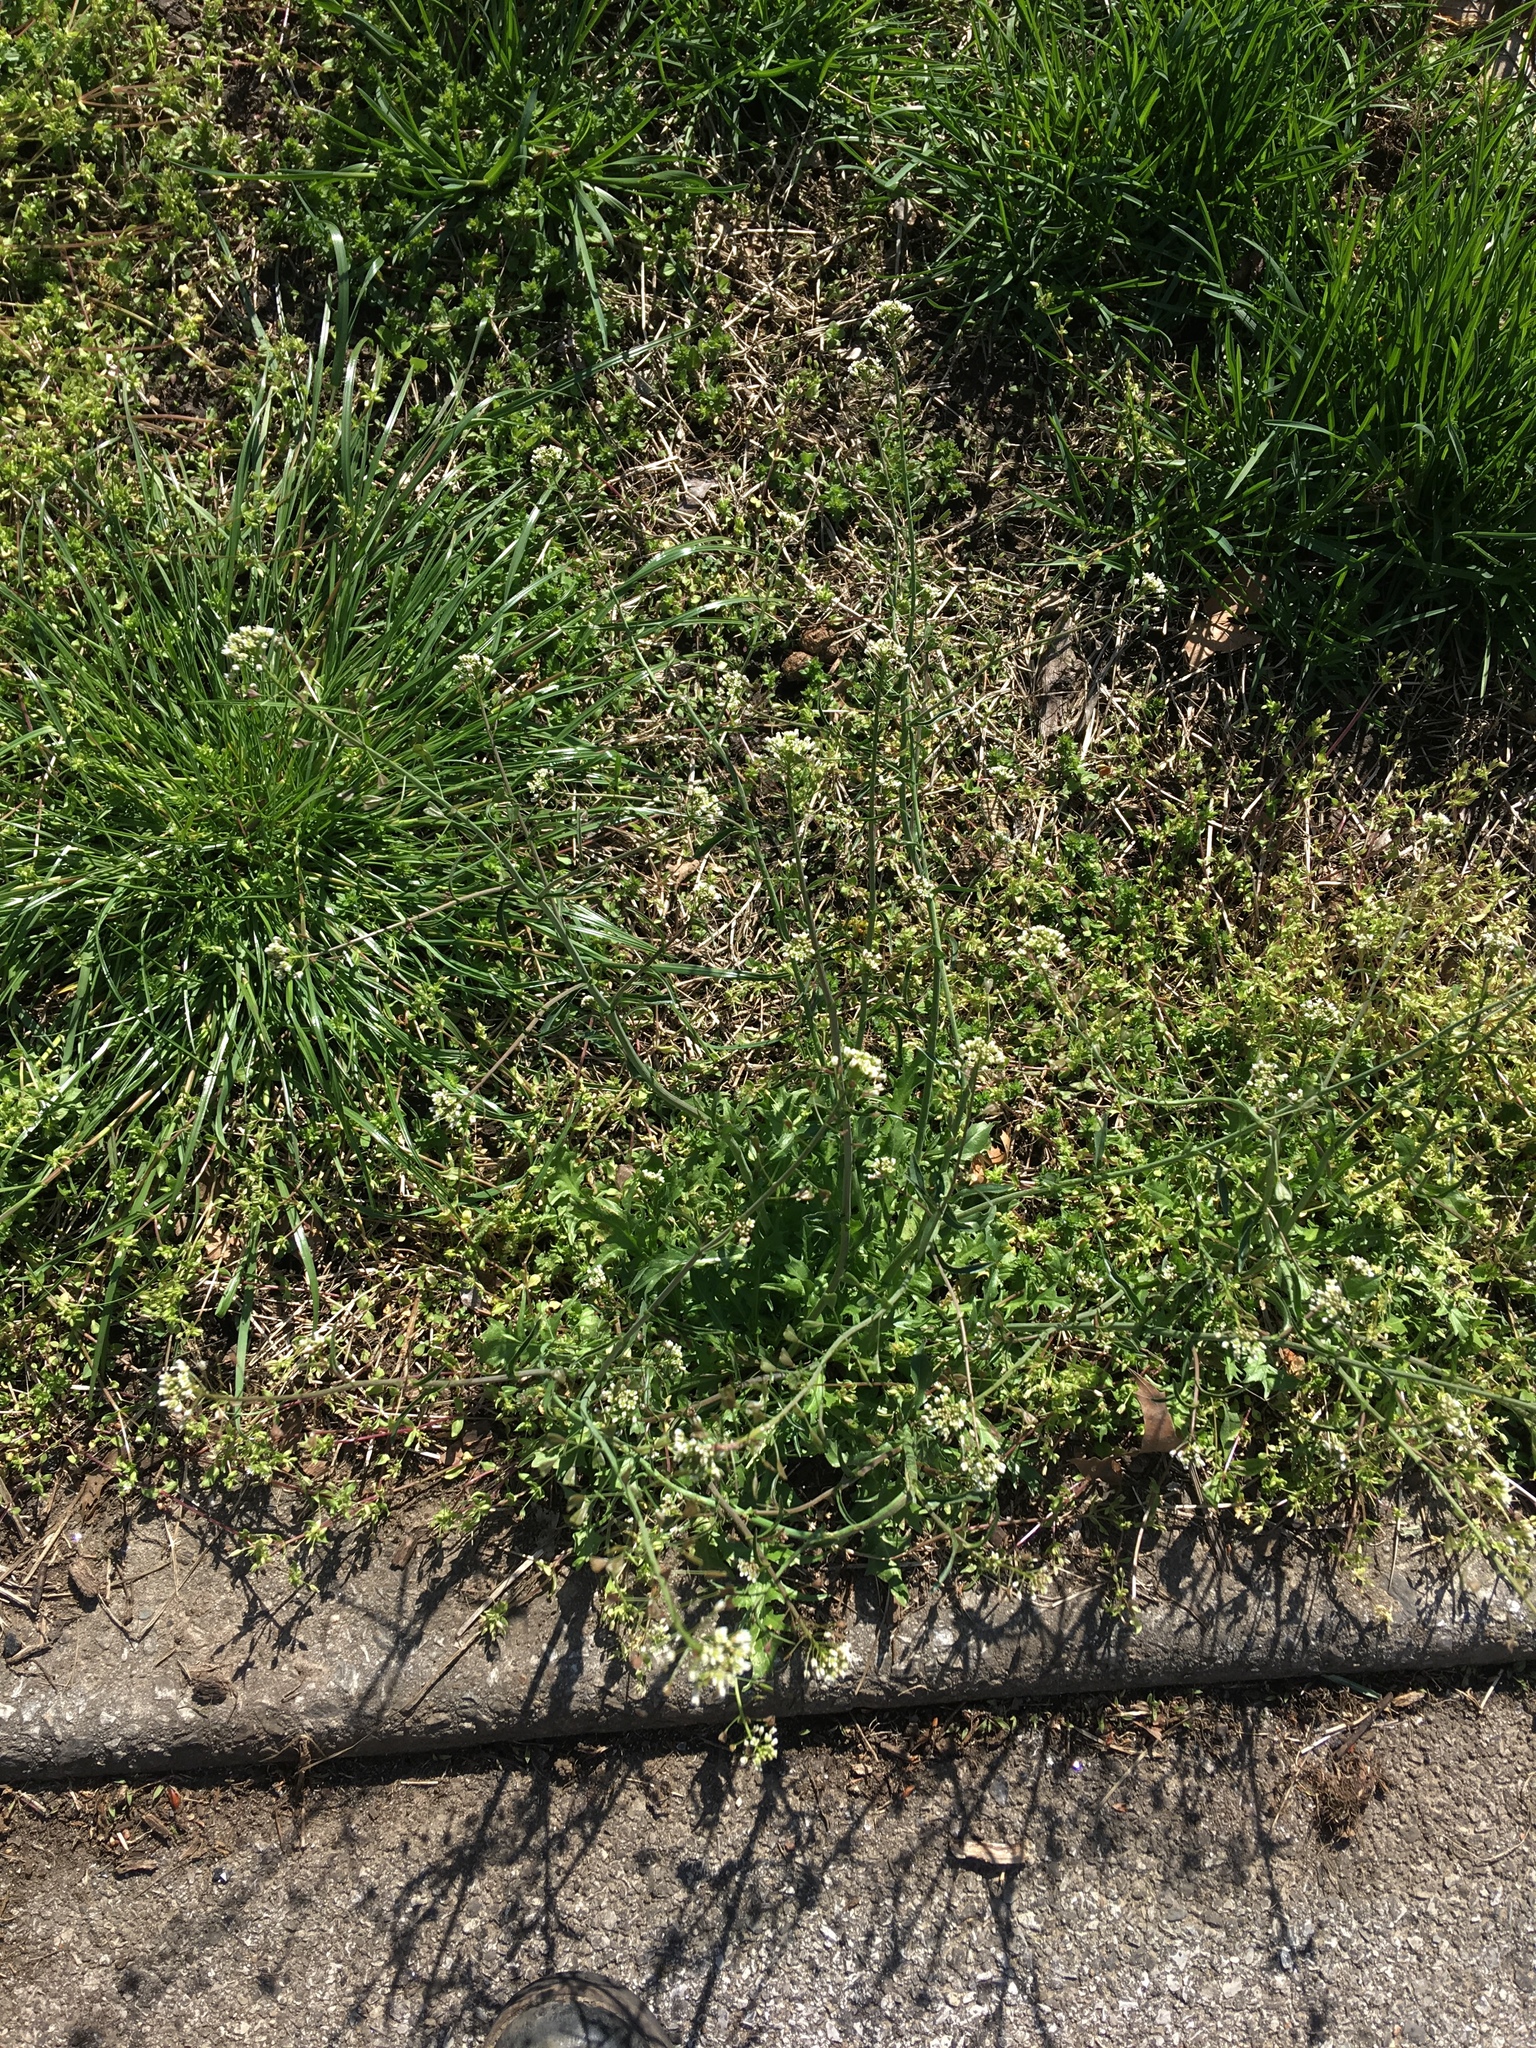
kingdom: Plantae
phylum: Tracheophyta
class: Magnoliopsida
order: Brassicales
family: Brassicaceae
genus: Capsella
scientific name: Capsella bursa-pastoris
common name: Shepherd's purse
